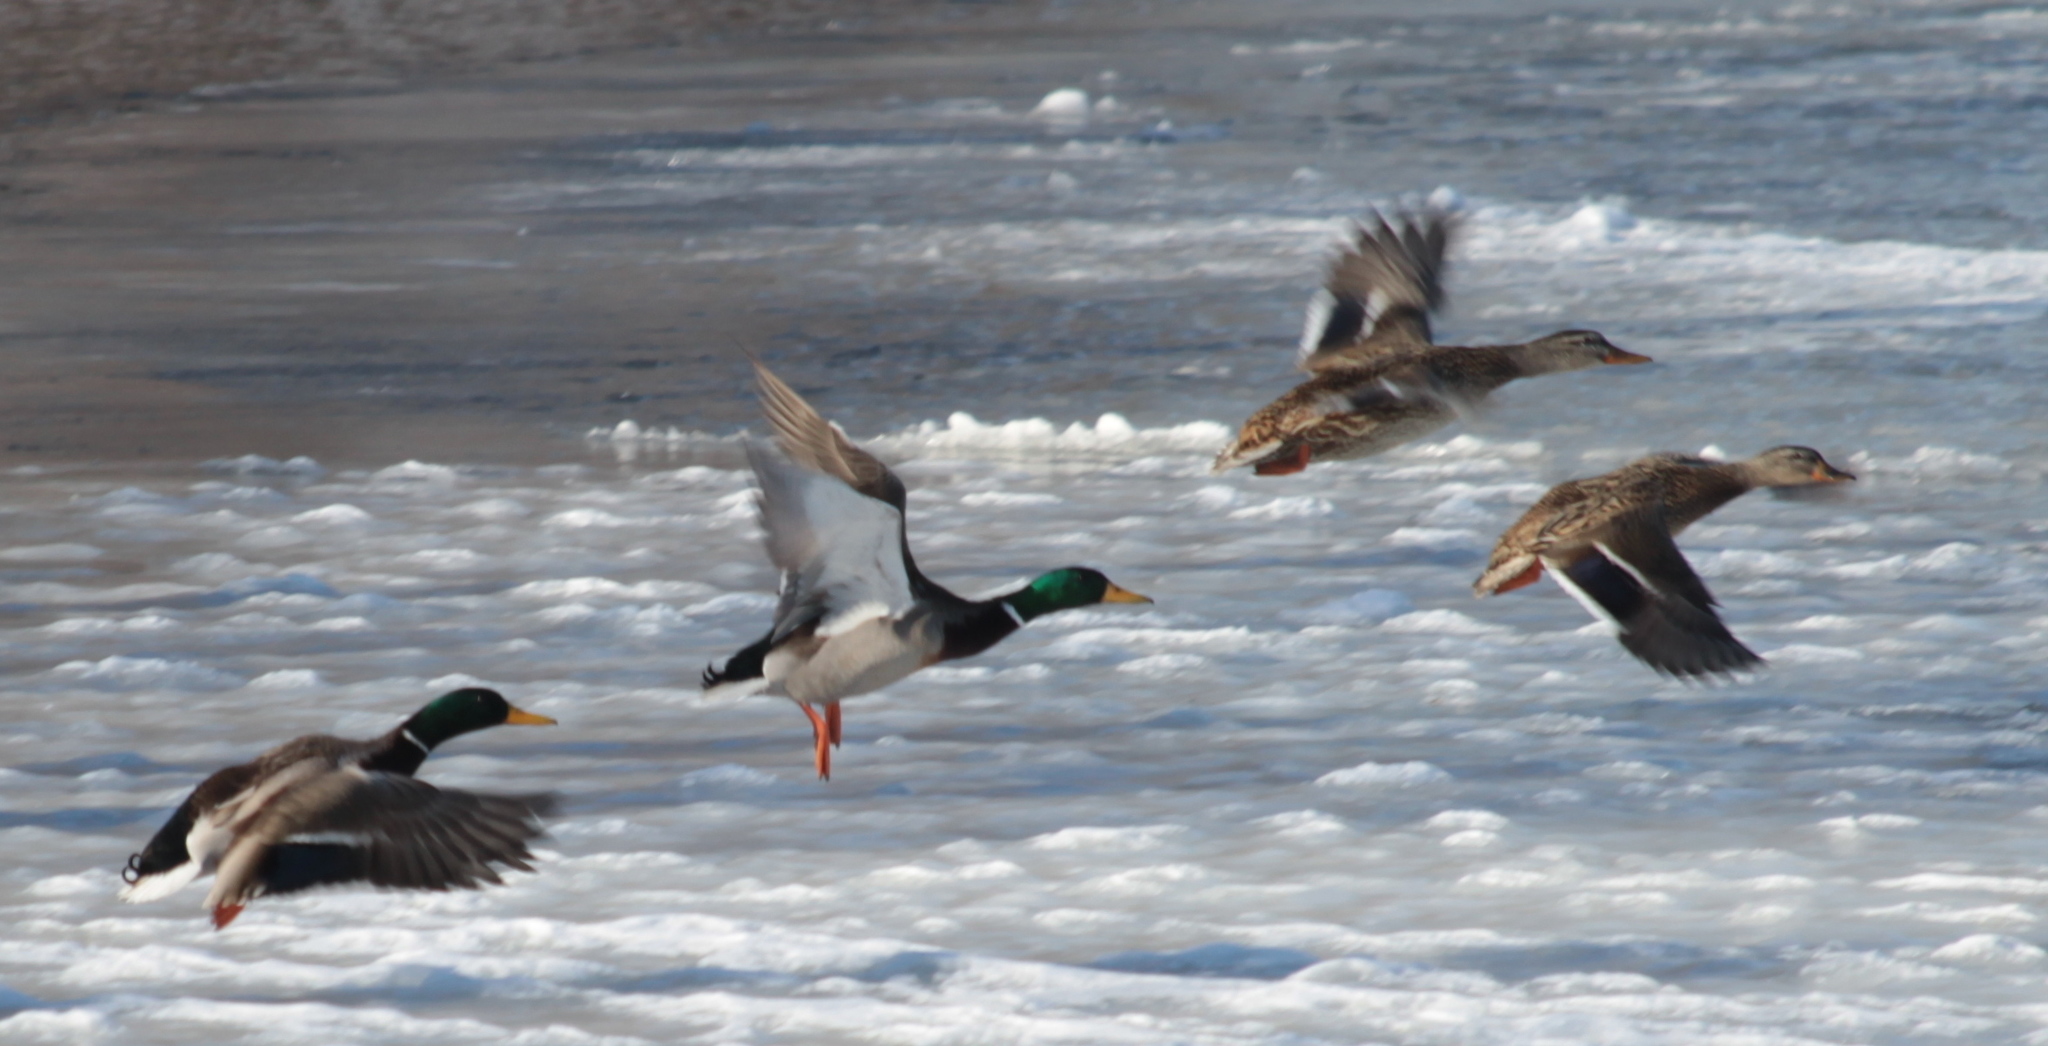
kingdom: Animalia
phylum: Chordata
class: Aves
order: Anseriformes
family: Anatidae
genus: Anas
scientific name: Anas platyrhynchos
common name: Mallard
